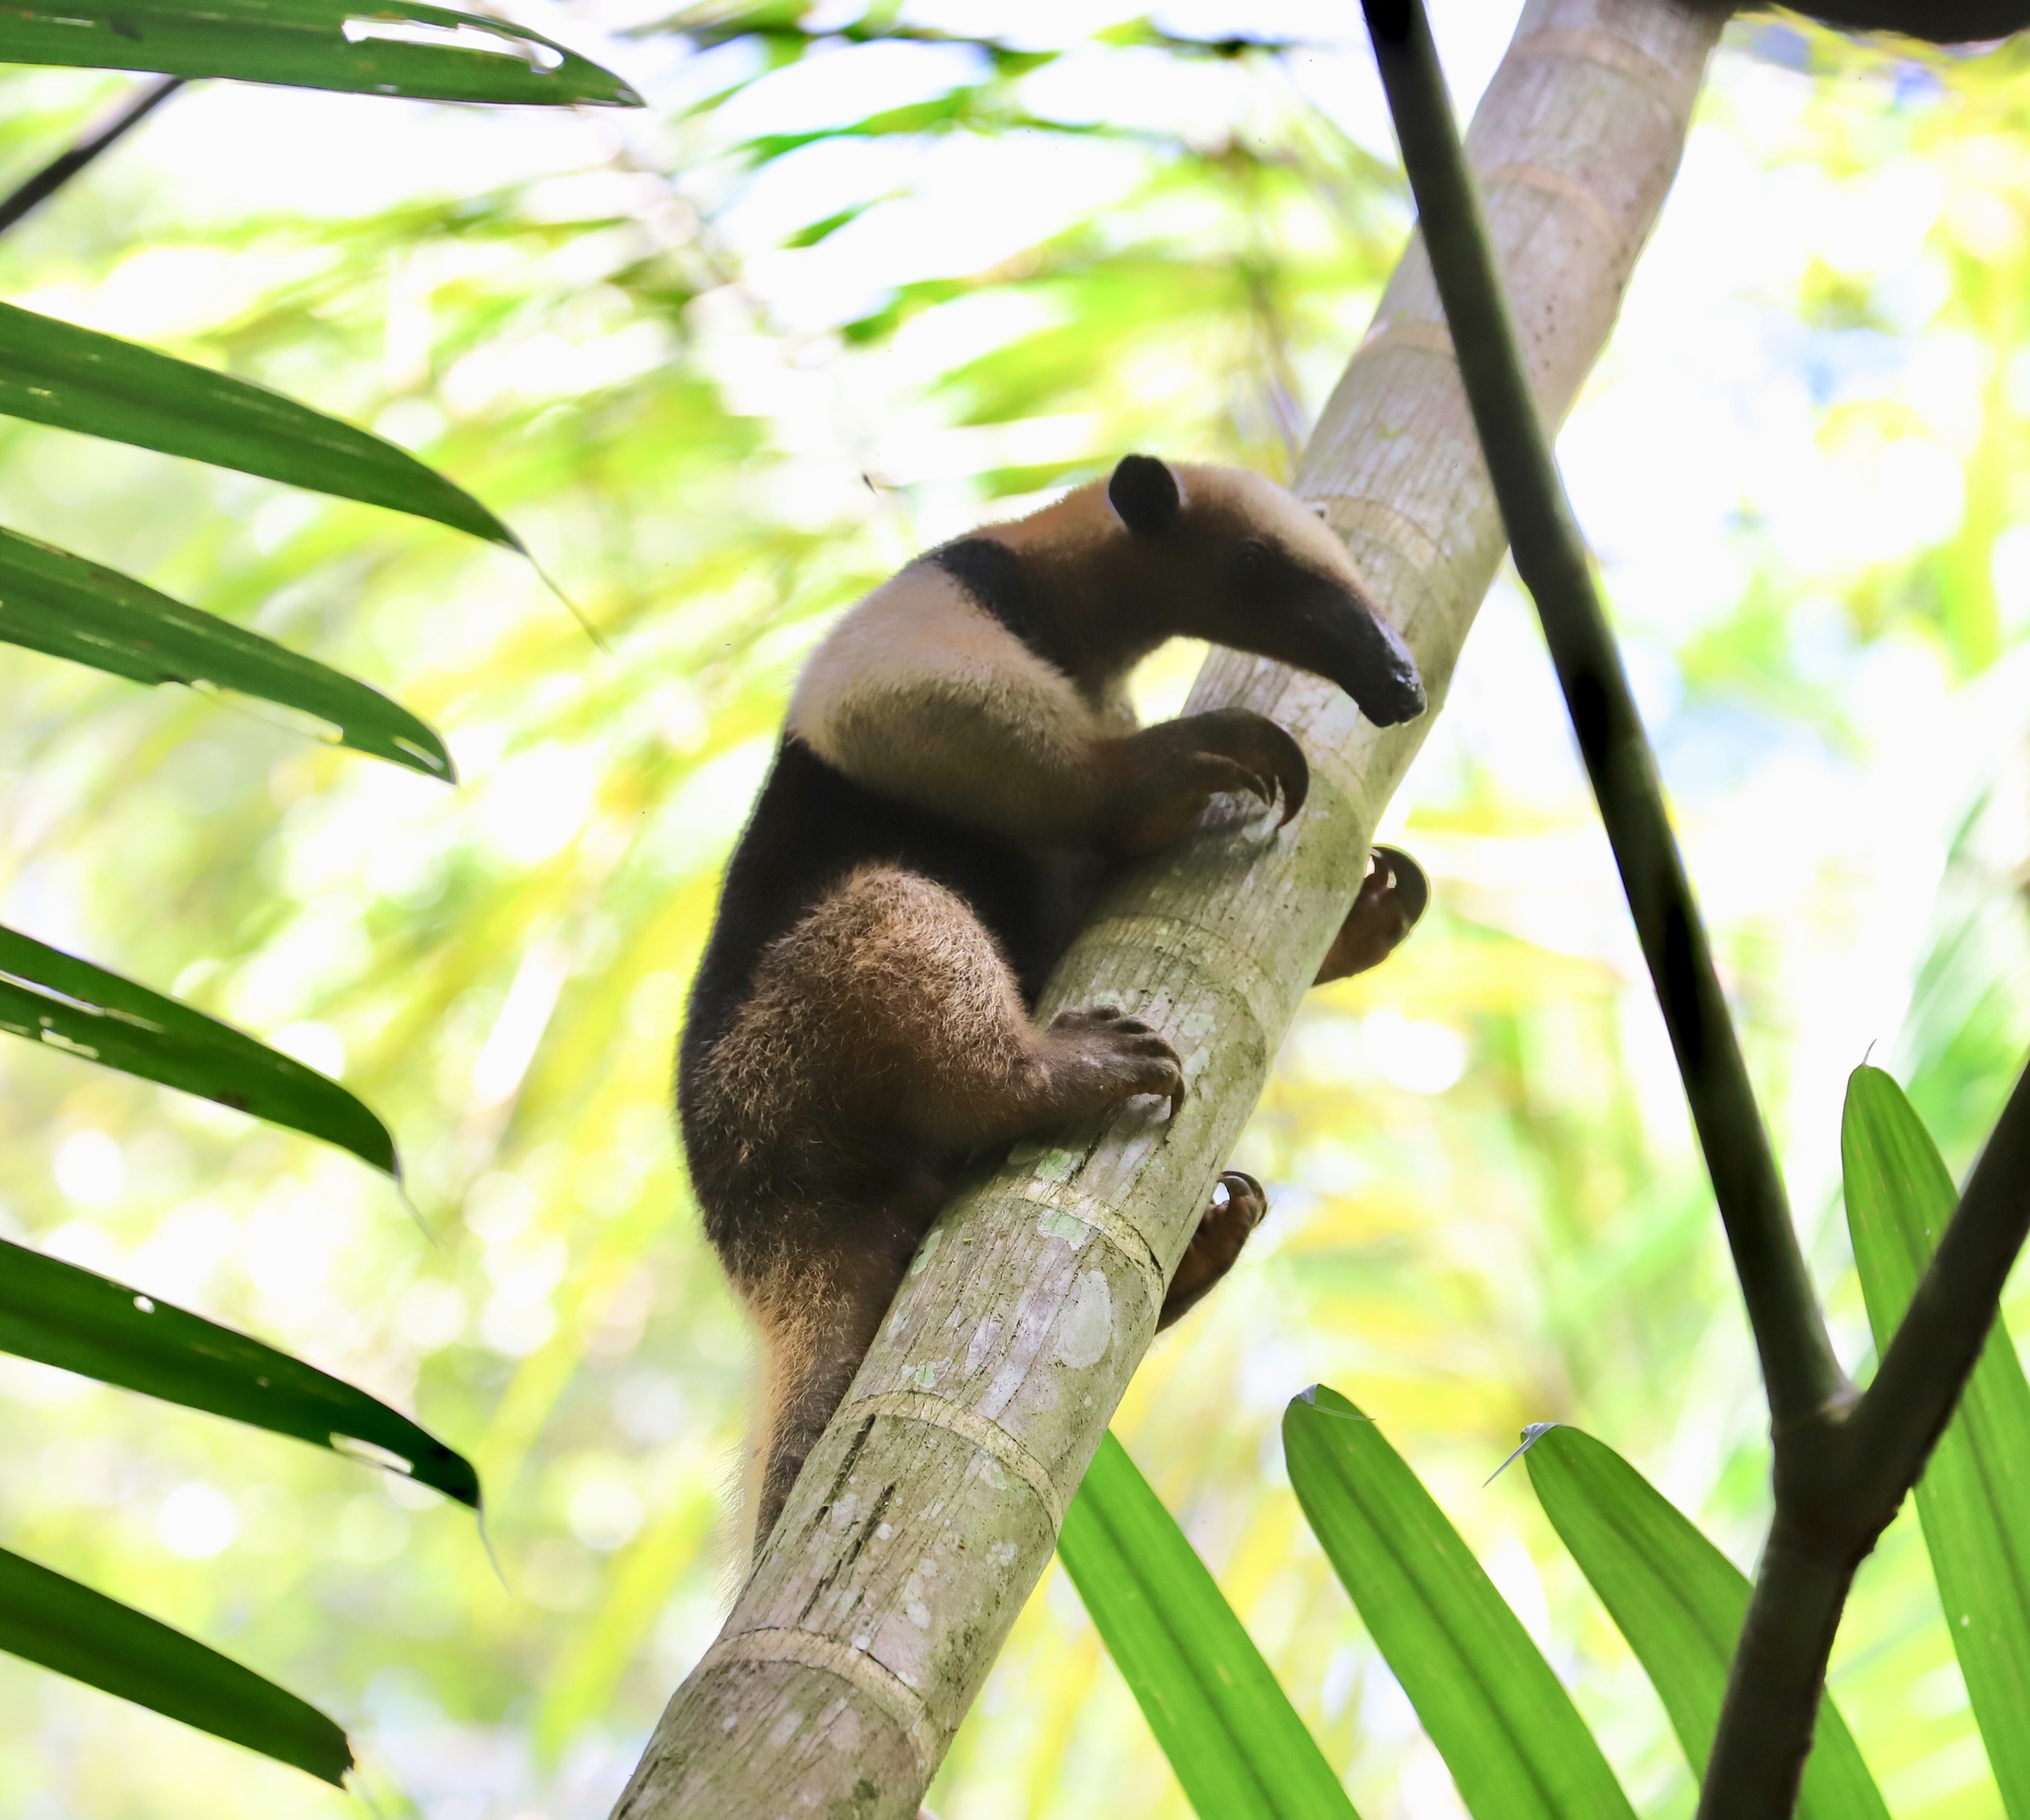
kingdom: Animalia
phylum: Chordata
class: Mammalia
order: Pilosa
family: Myrmecophagidae
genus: Tamandua
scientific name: Tamandua mexicana
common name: Northern tamandua
